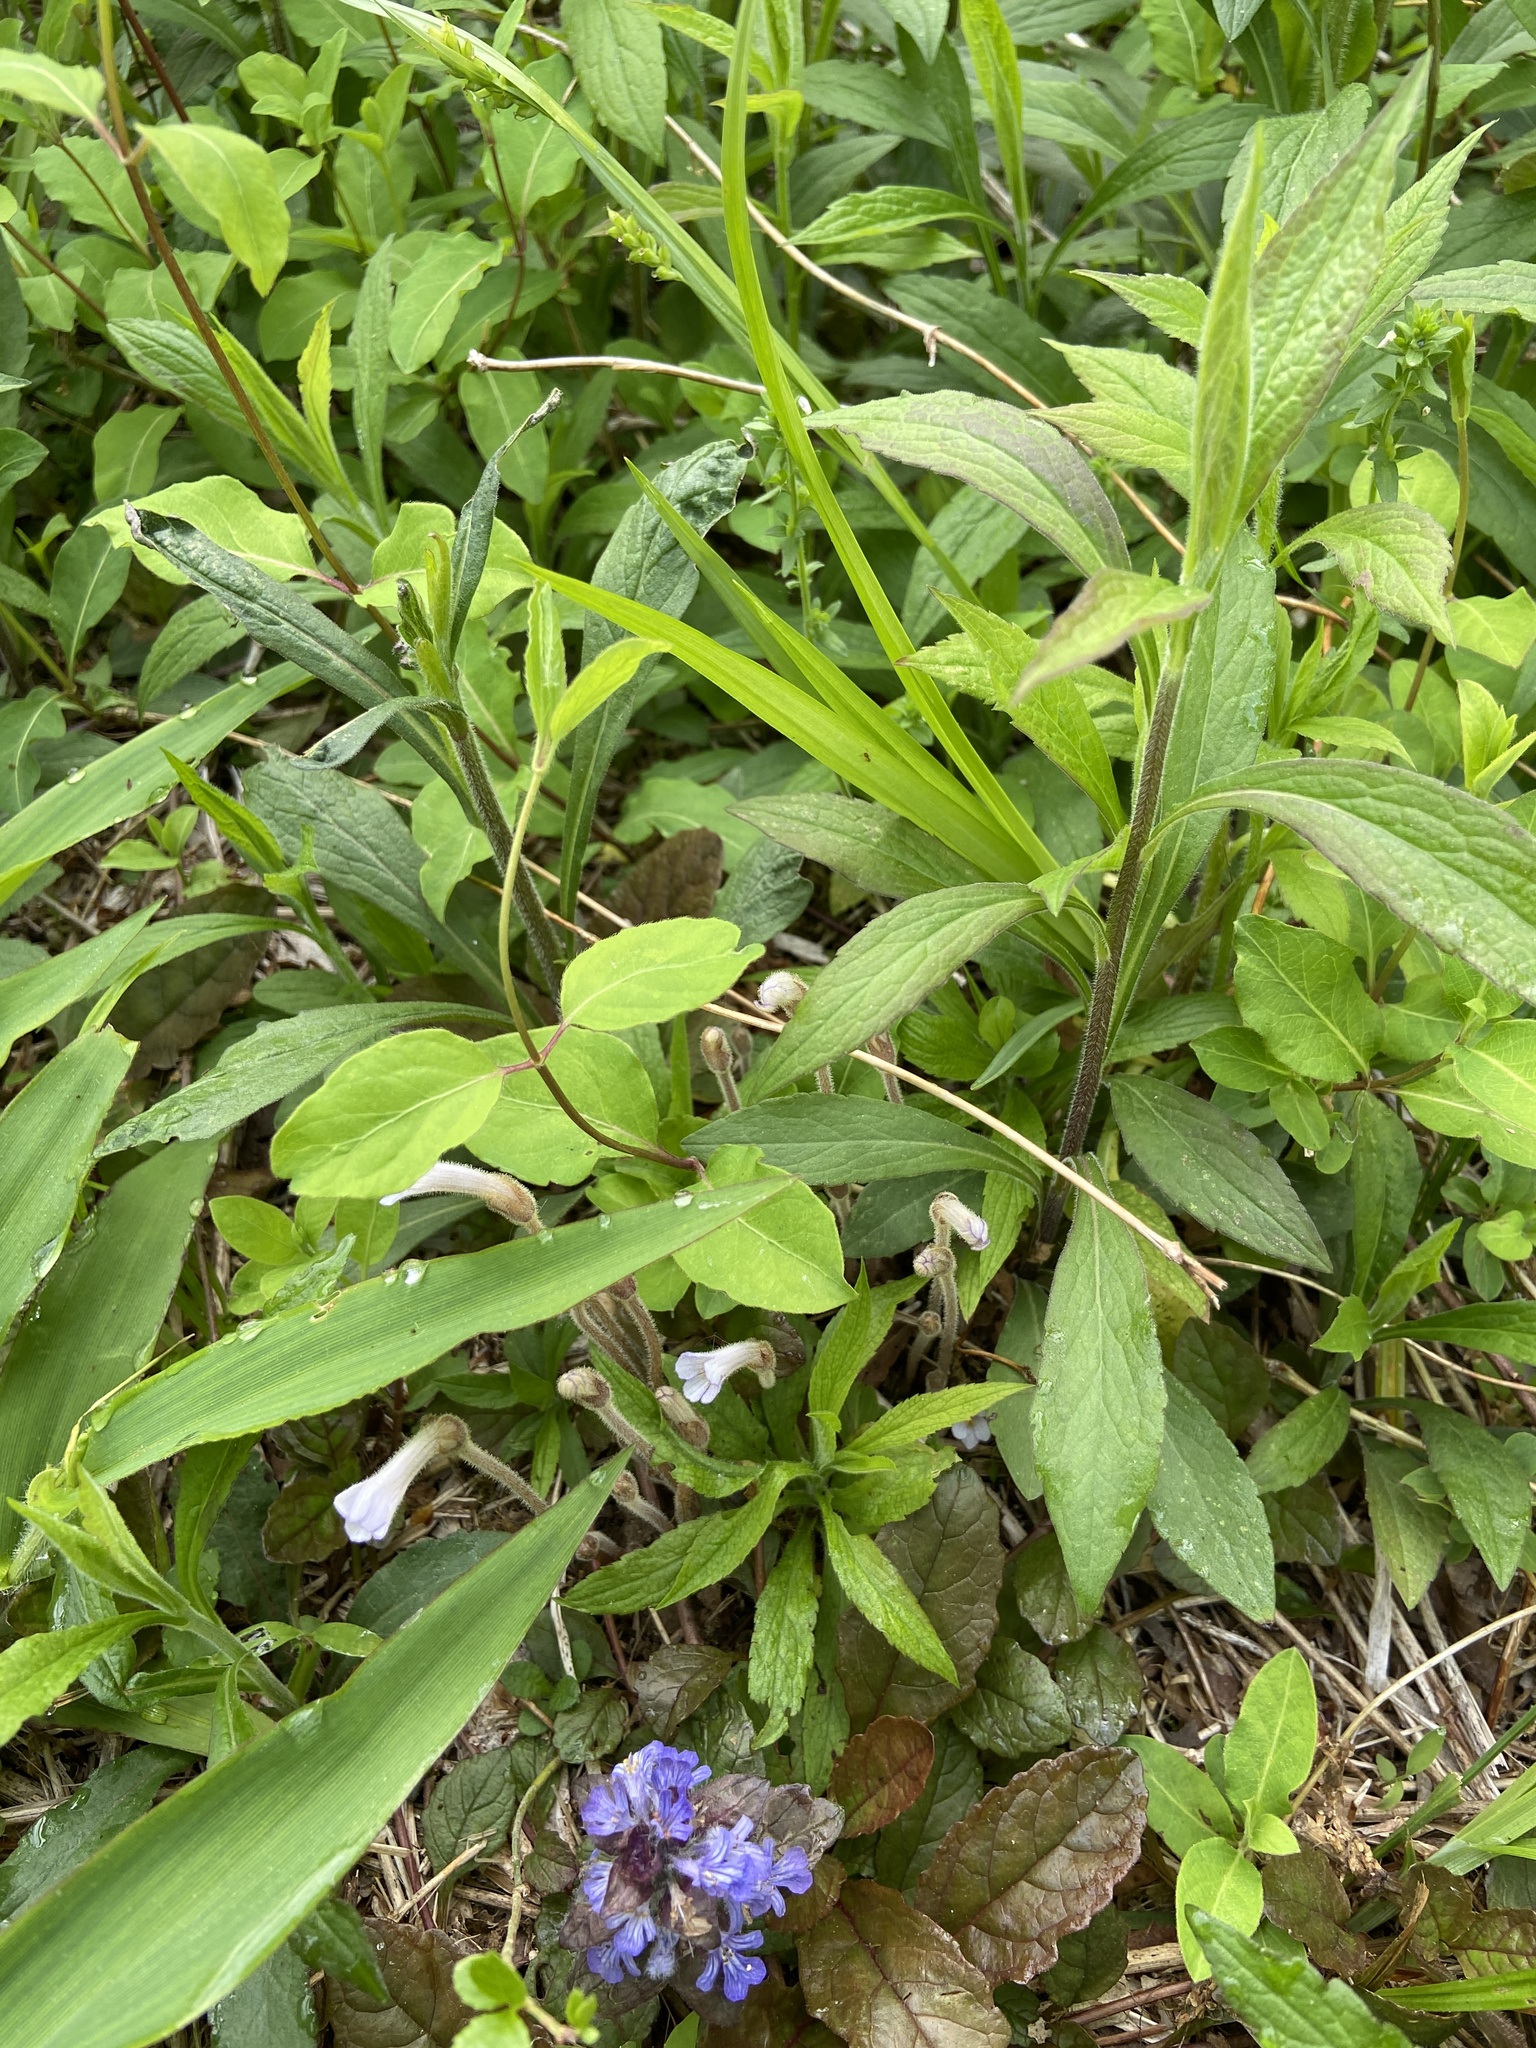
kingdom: Plantae
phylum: Tracheophyta
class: Magnoliopsida
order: Lamiales
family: Orobanchaceae
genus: Aphyllon
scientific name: Aphyllon uniflorum
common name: One-flowered broomrape
